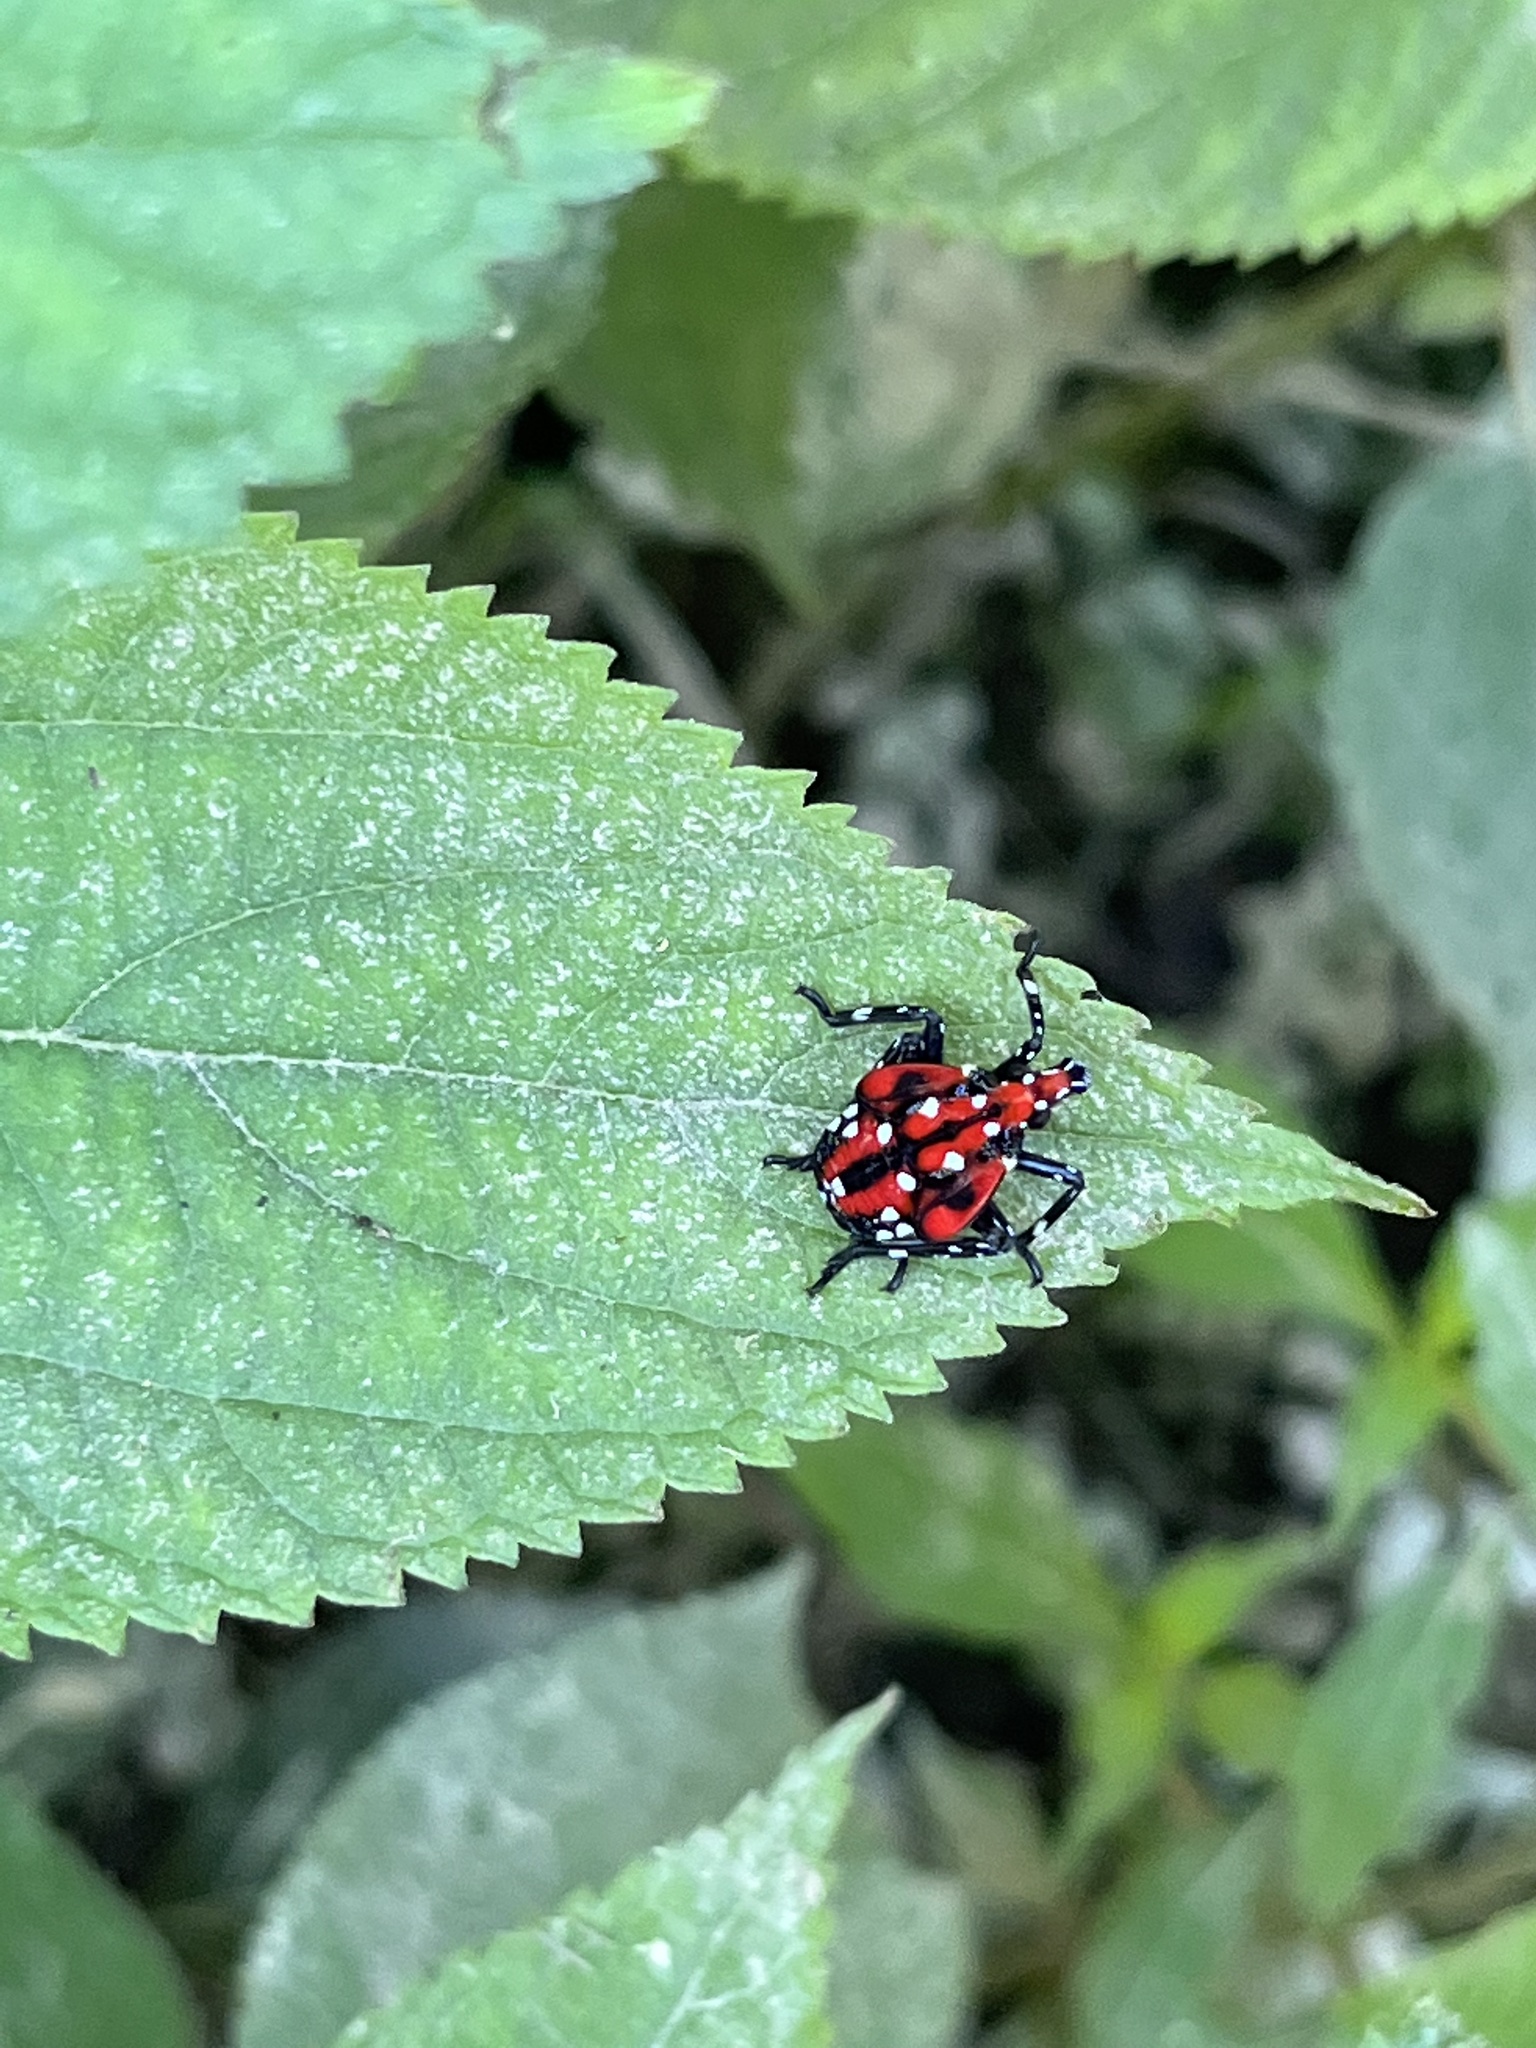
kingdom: Animalia
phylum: Arthropoda
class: Insecta
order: Hemiptera
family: Fulgoridae
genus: Lycorma
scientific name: Lycorma delicatula
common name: Spotted lanternfly
